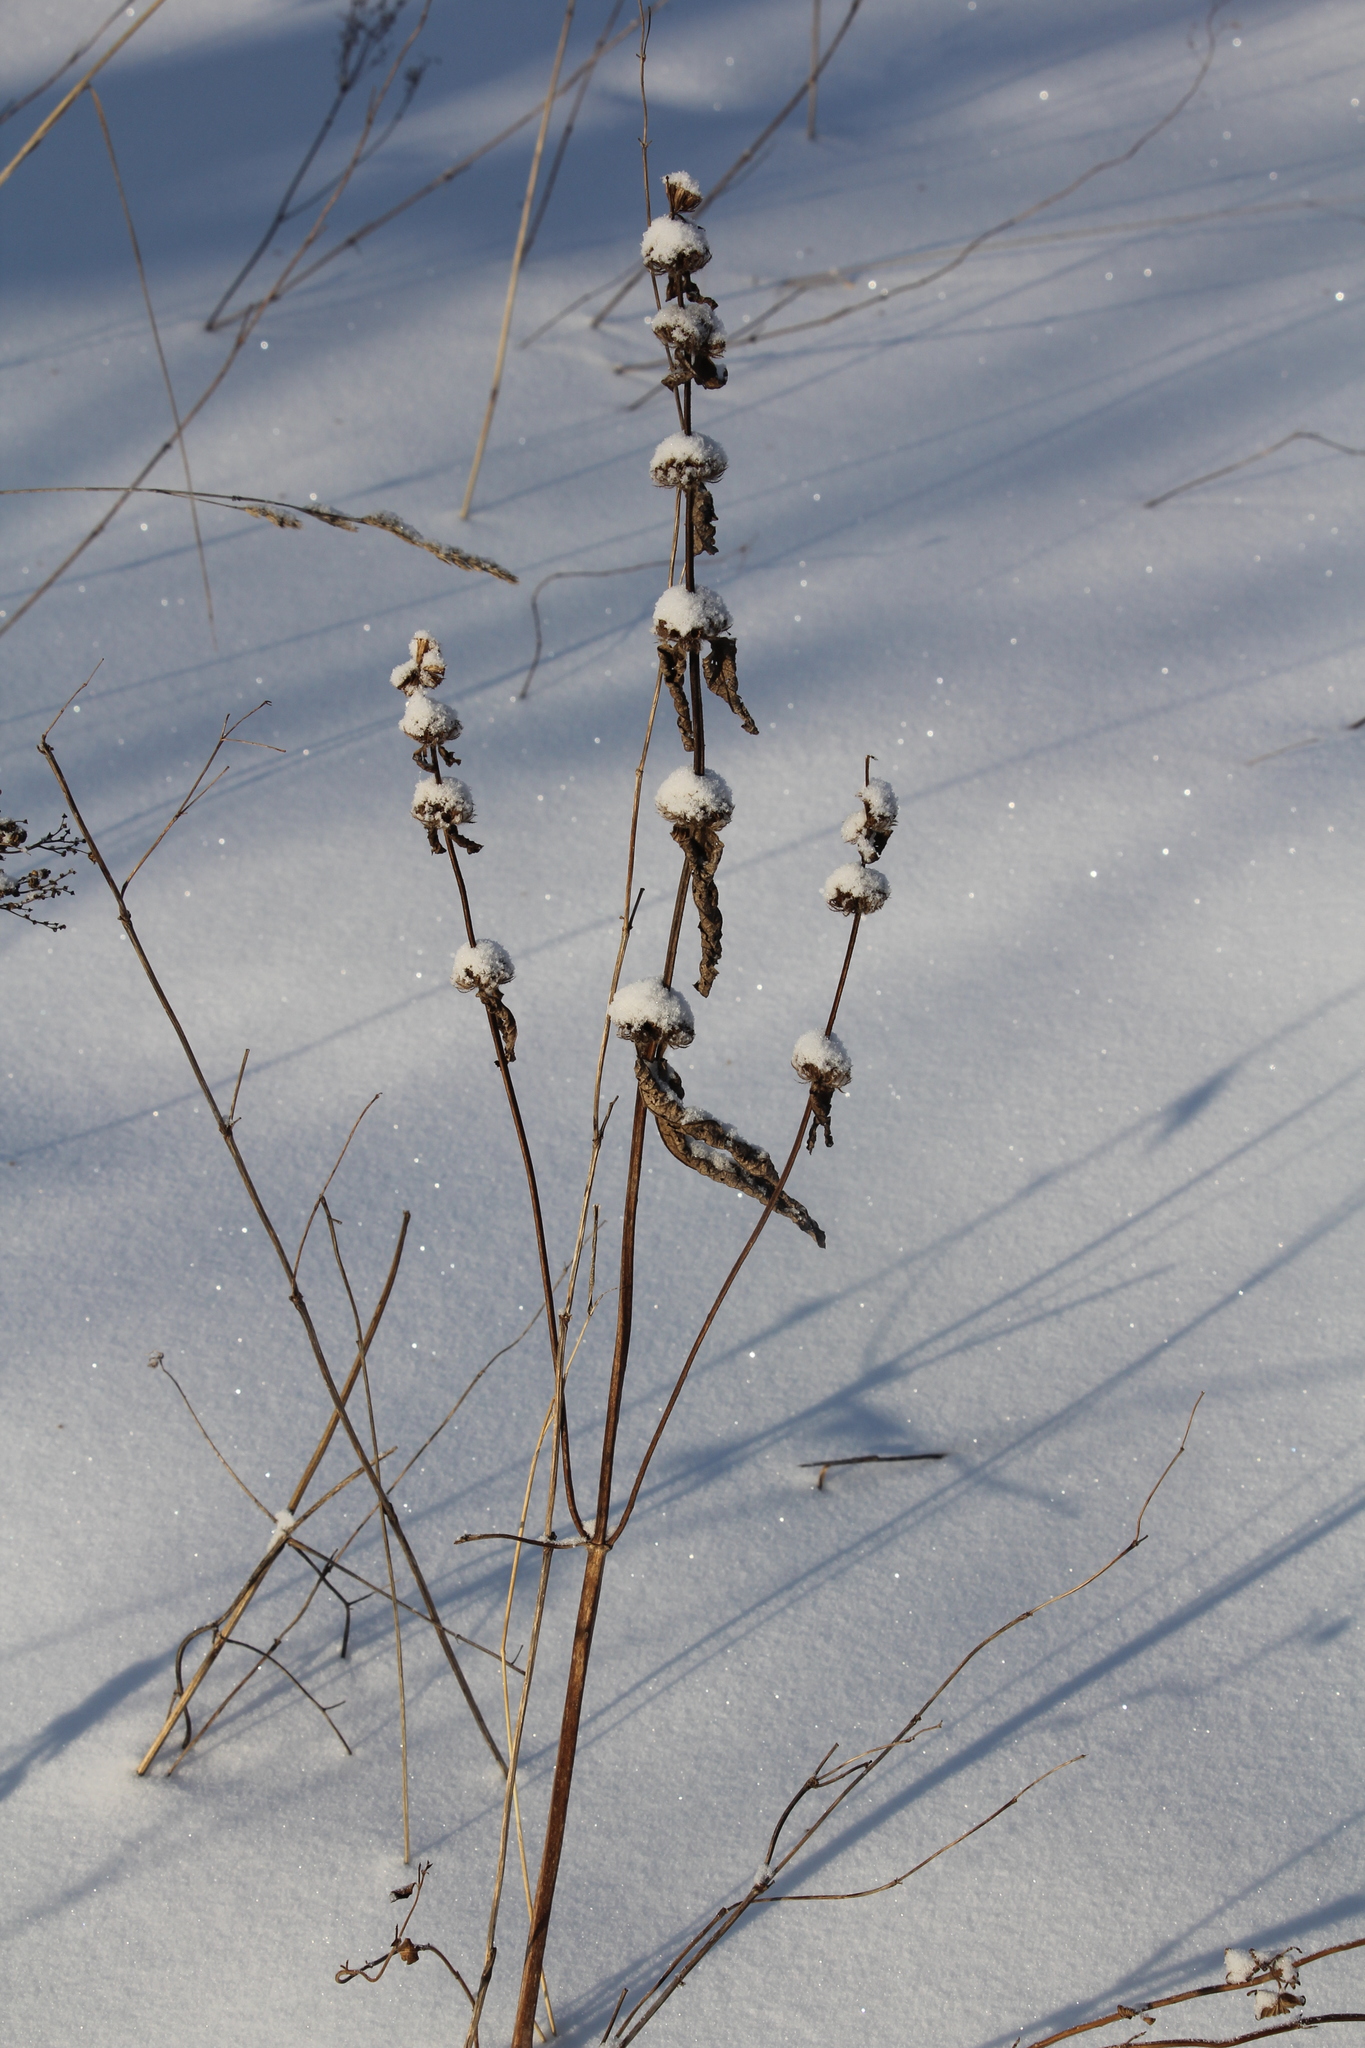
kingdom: Plantae
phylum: Tracheophyta
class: Magnoliopsida
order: Lamiales
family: Lamiaceae
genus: Phlomoides
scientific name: Phlomoides tuberosa
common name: Tuberous jerusalem sage
